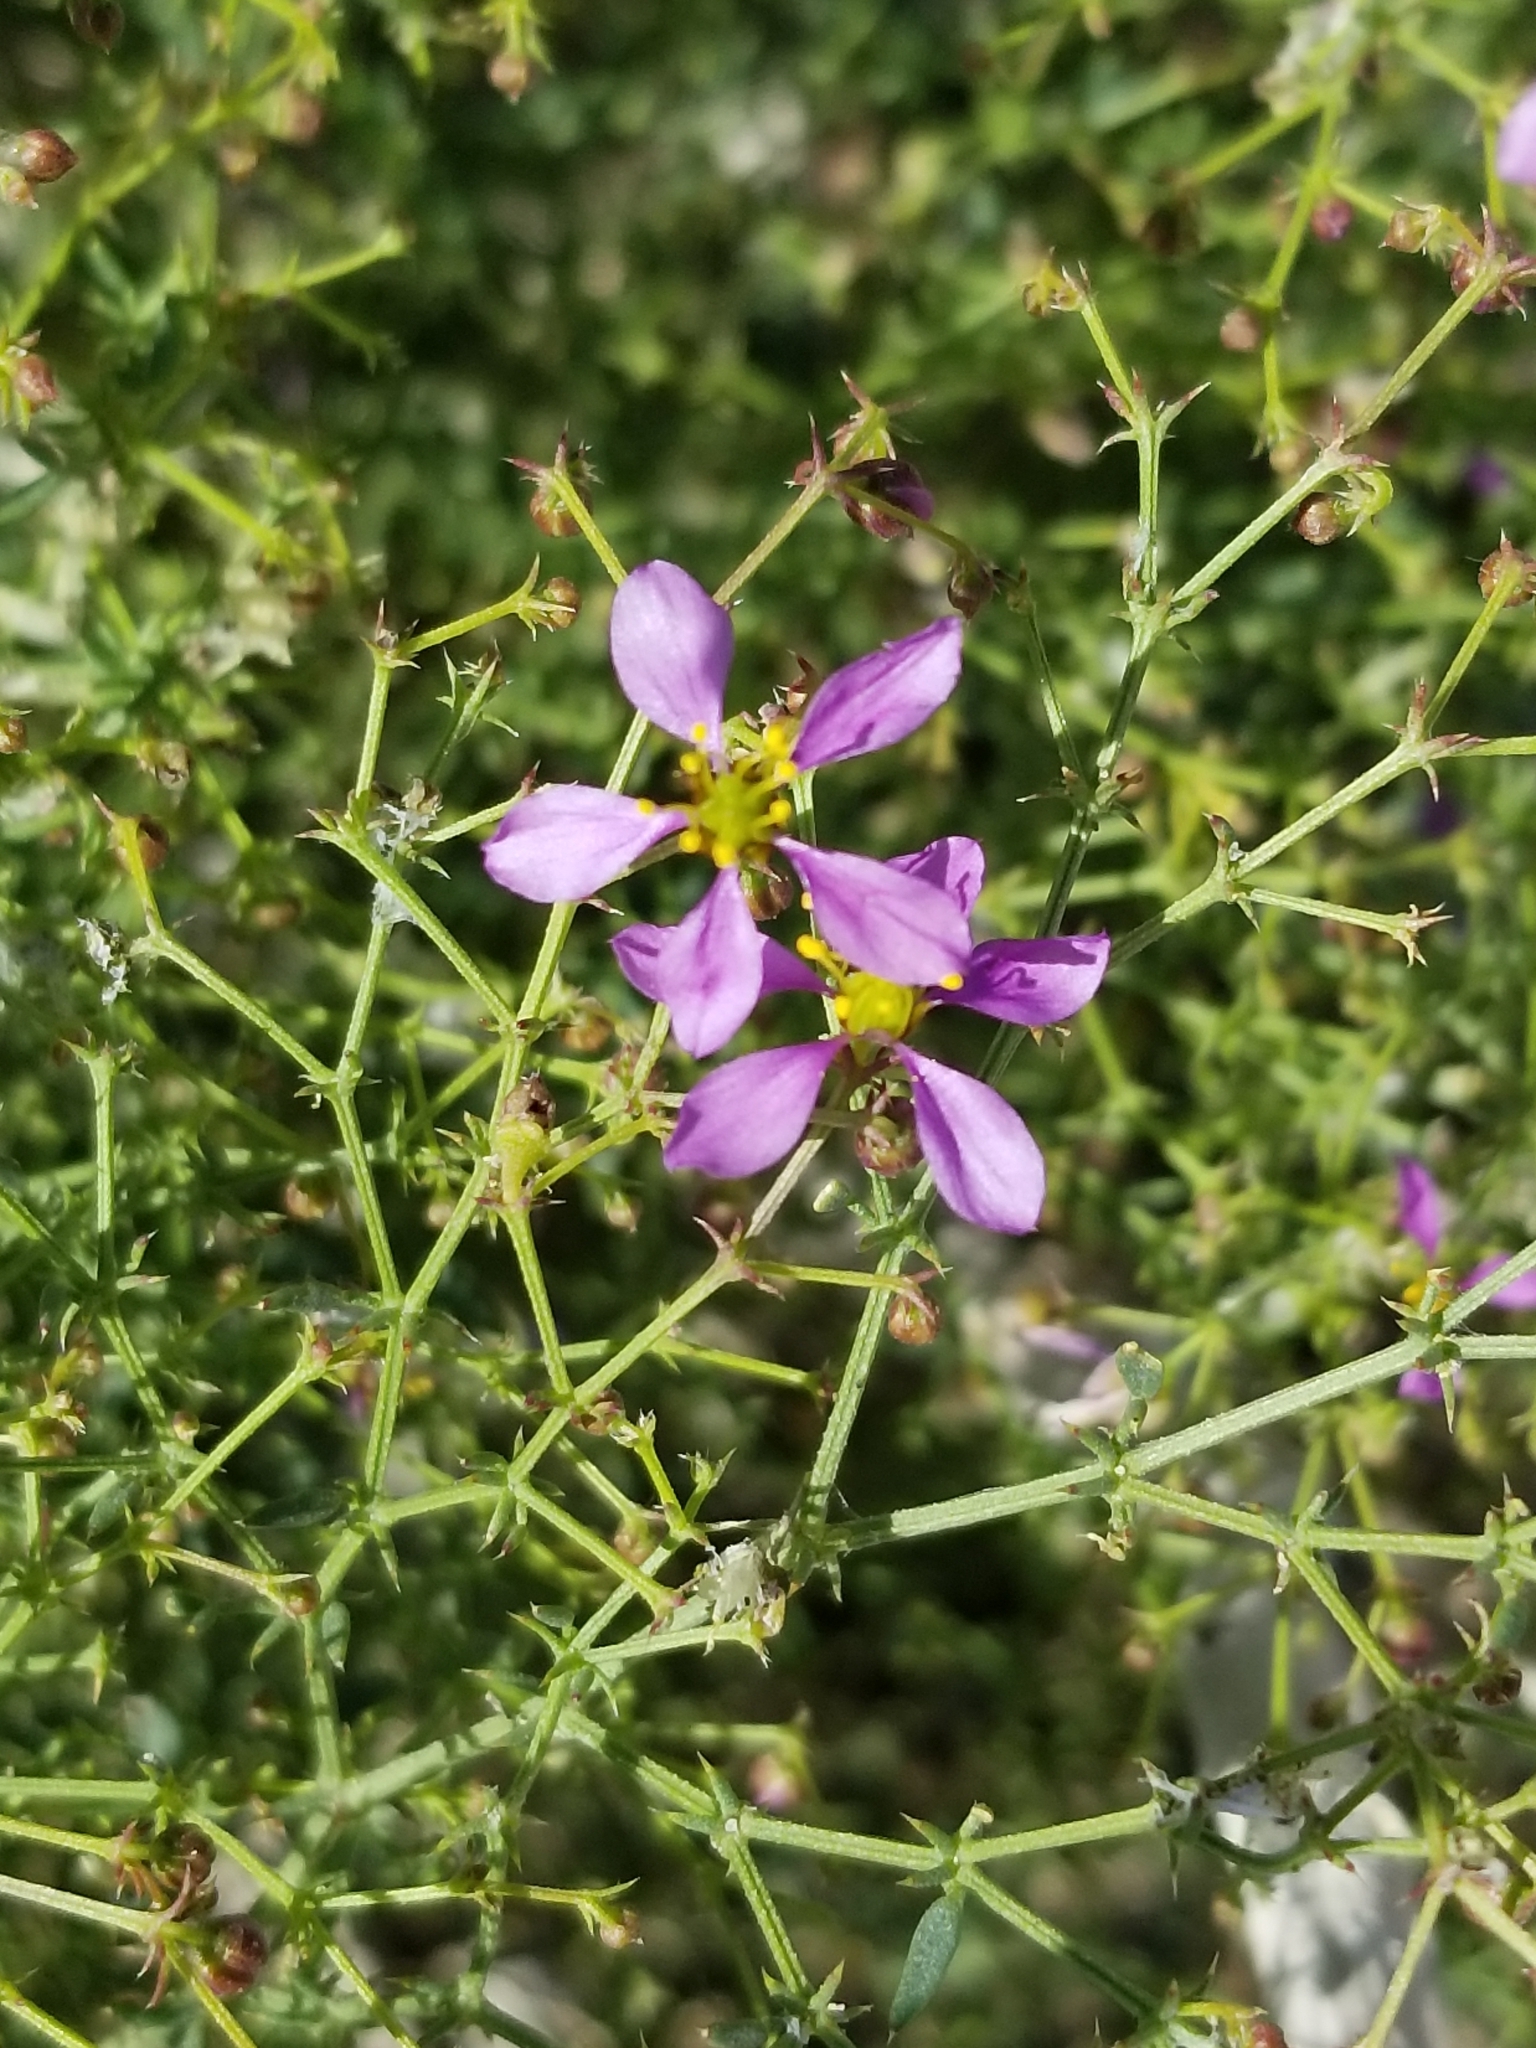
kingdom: Plantae
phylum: Tracheophyta
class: Magnoliopsida
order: Zygophyllales
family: Zygophyllaceae
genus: Fagonia
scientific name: Fagonia laevis
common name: California fagonbush
